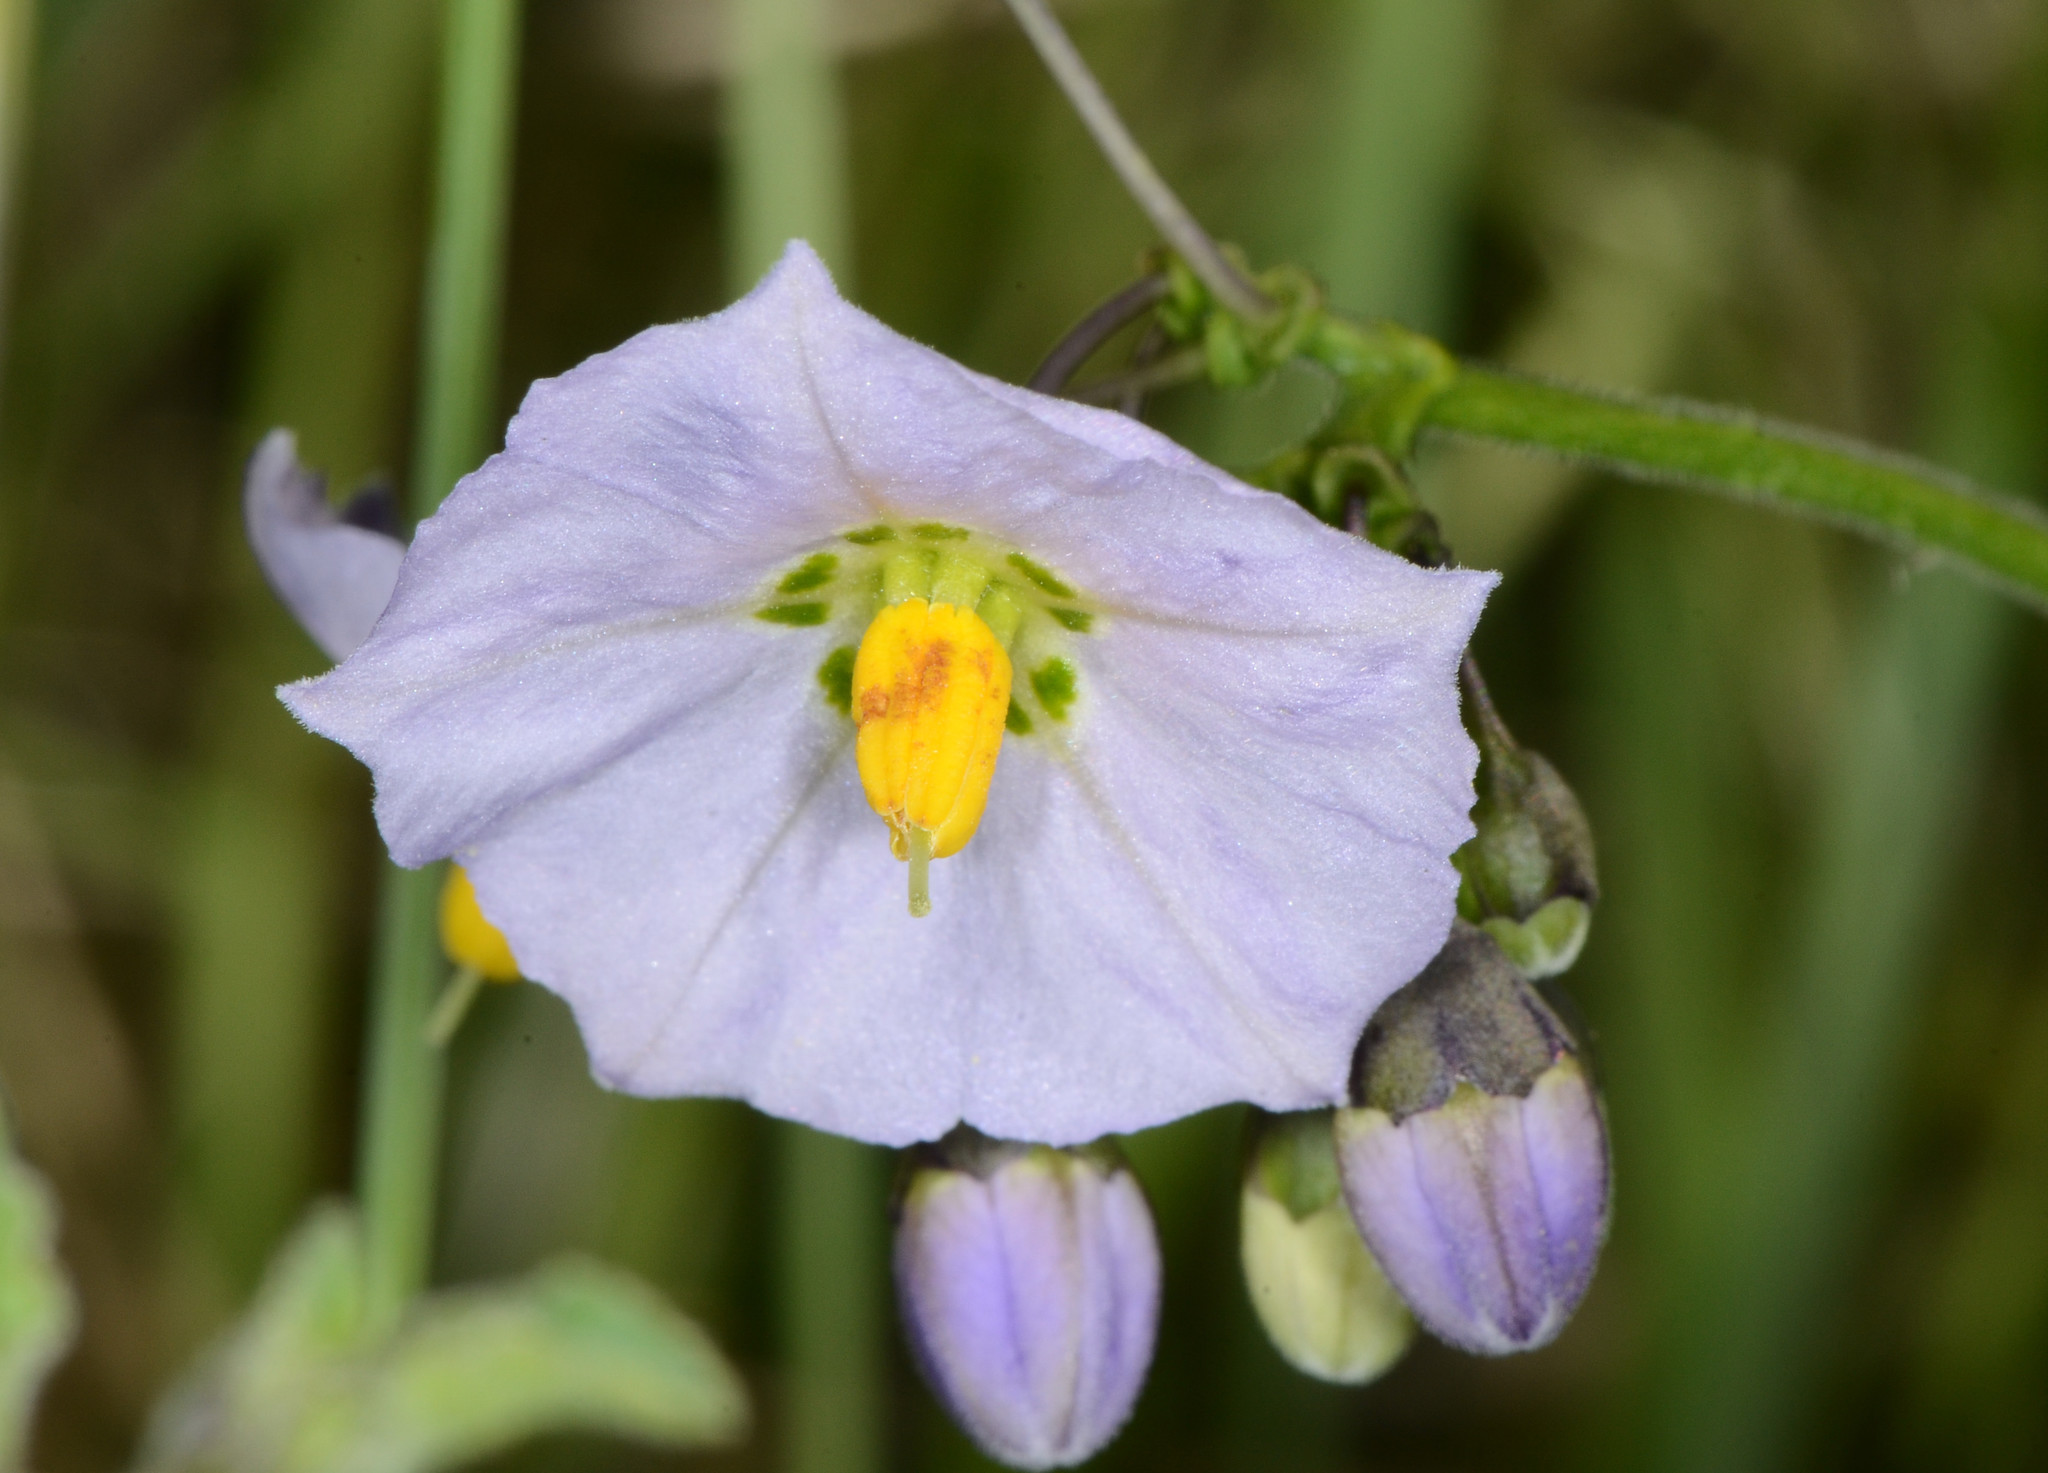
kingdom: Plantae
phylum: Tracheophyta
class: Magnoliopsida
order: Solanales
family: Solanaceae
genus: Solanum
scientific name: Solanum umbelliferum
